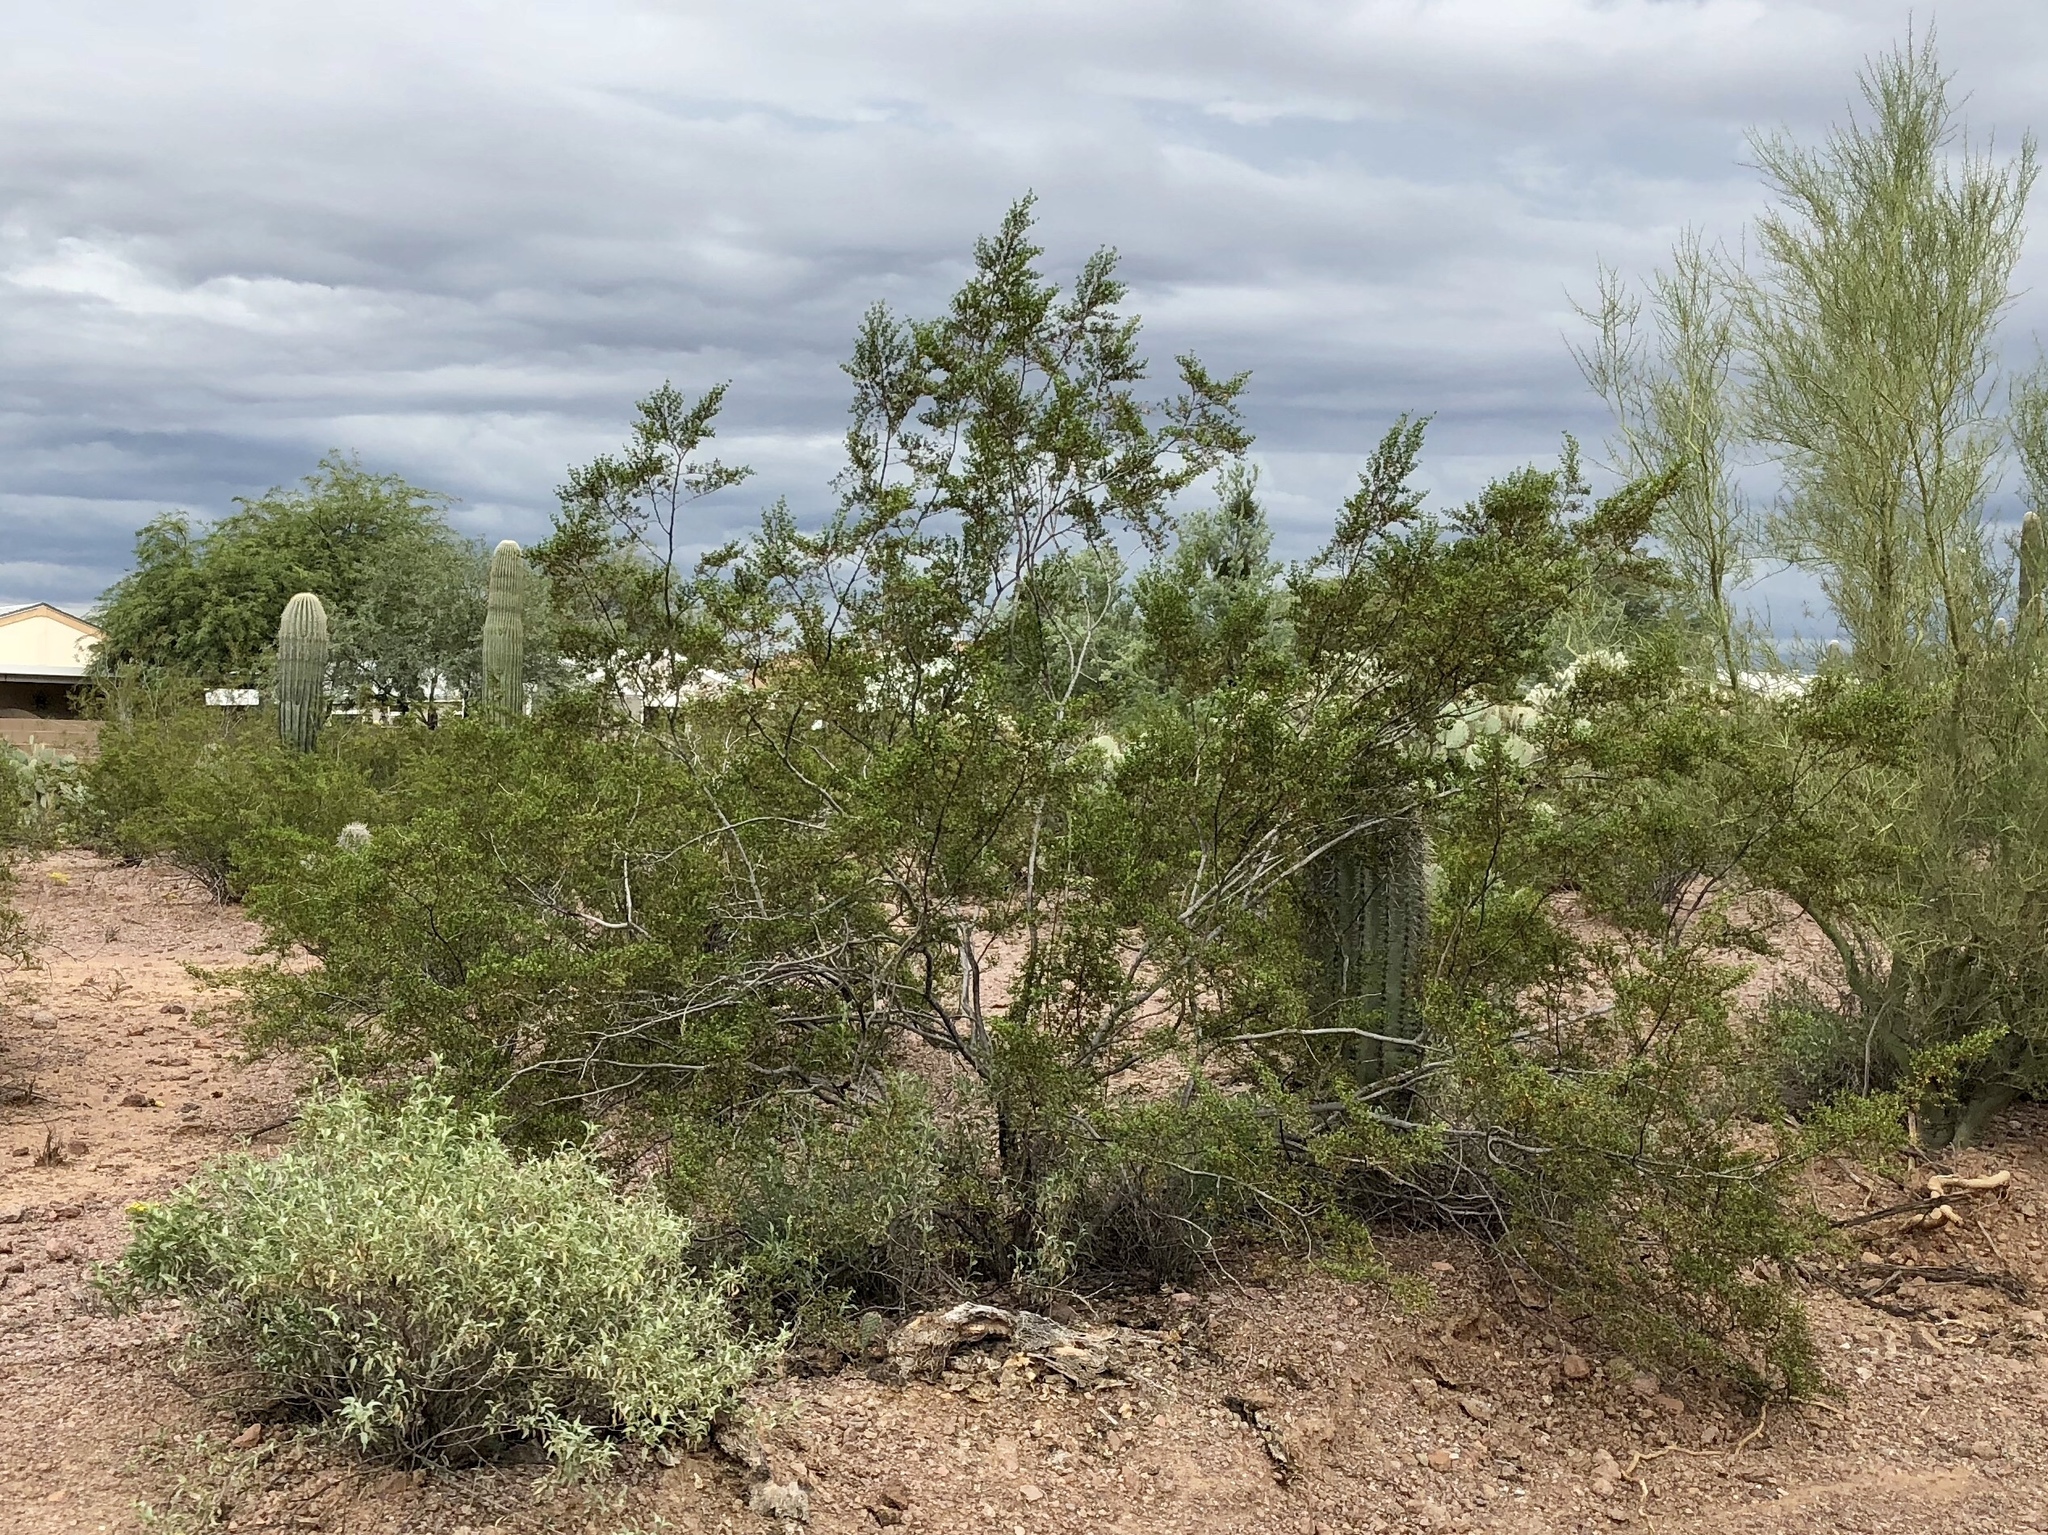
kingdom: Plantae
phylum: Tracheophyta
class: Magnoliopsida
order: Zygophyllales
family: Zygophyllaceae
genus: Larrea
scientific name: Larrea tridentata
